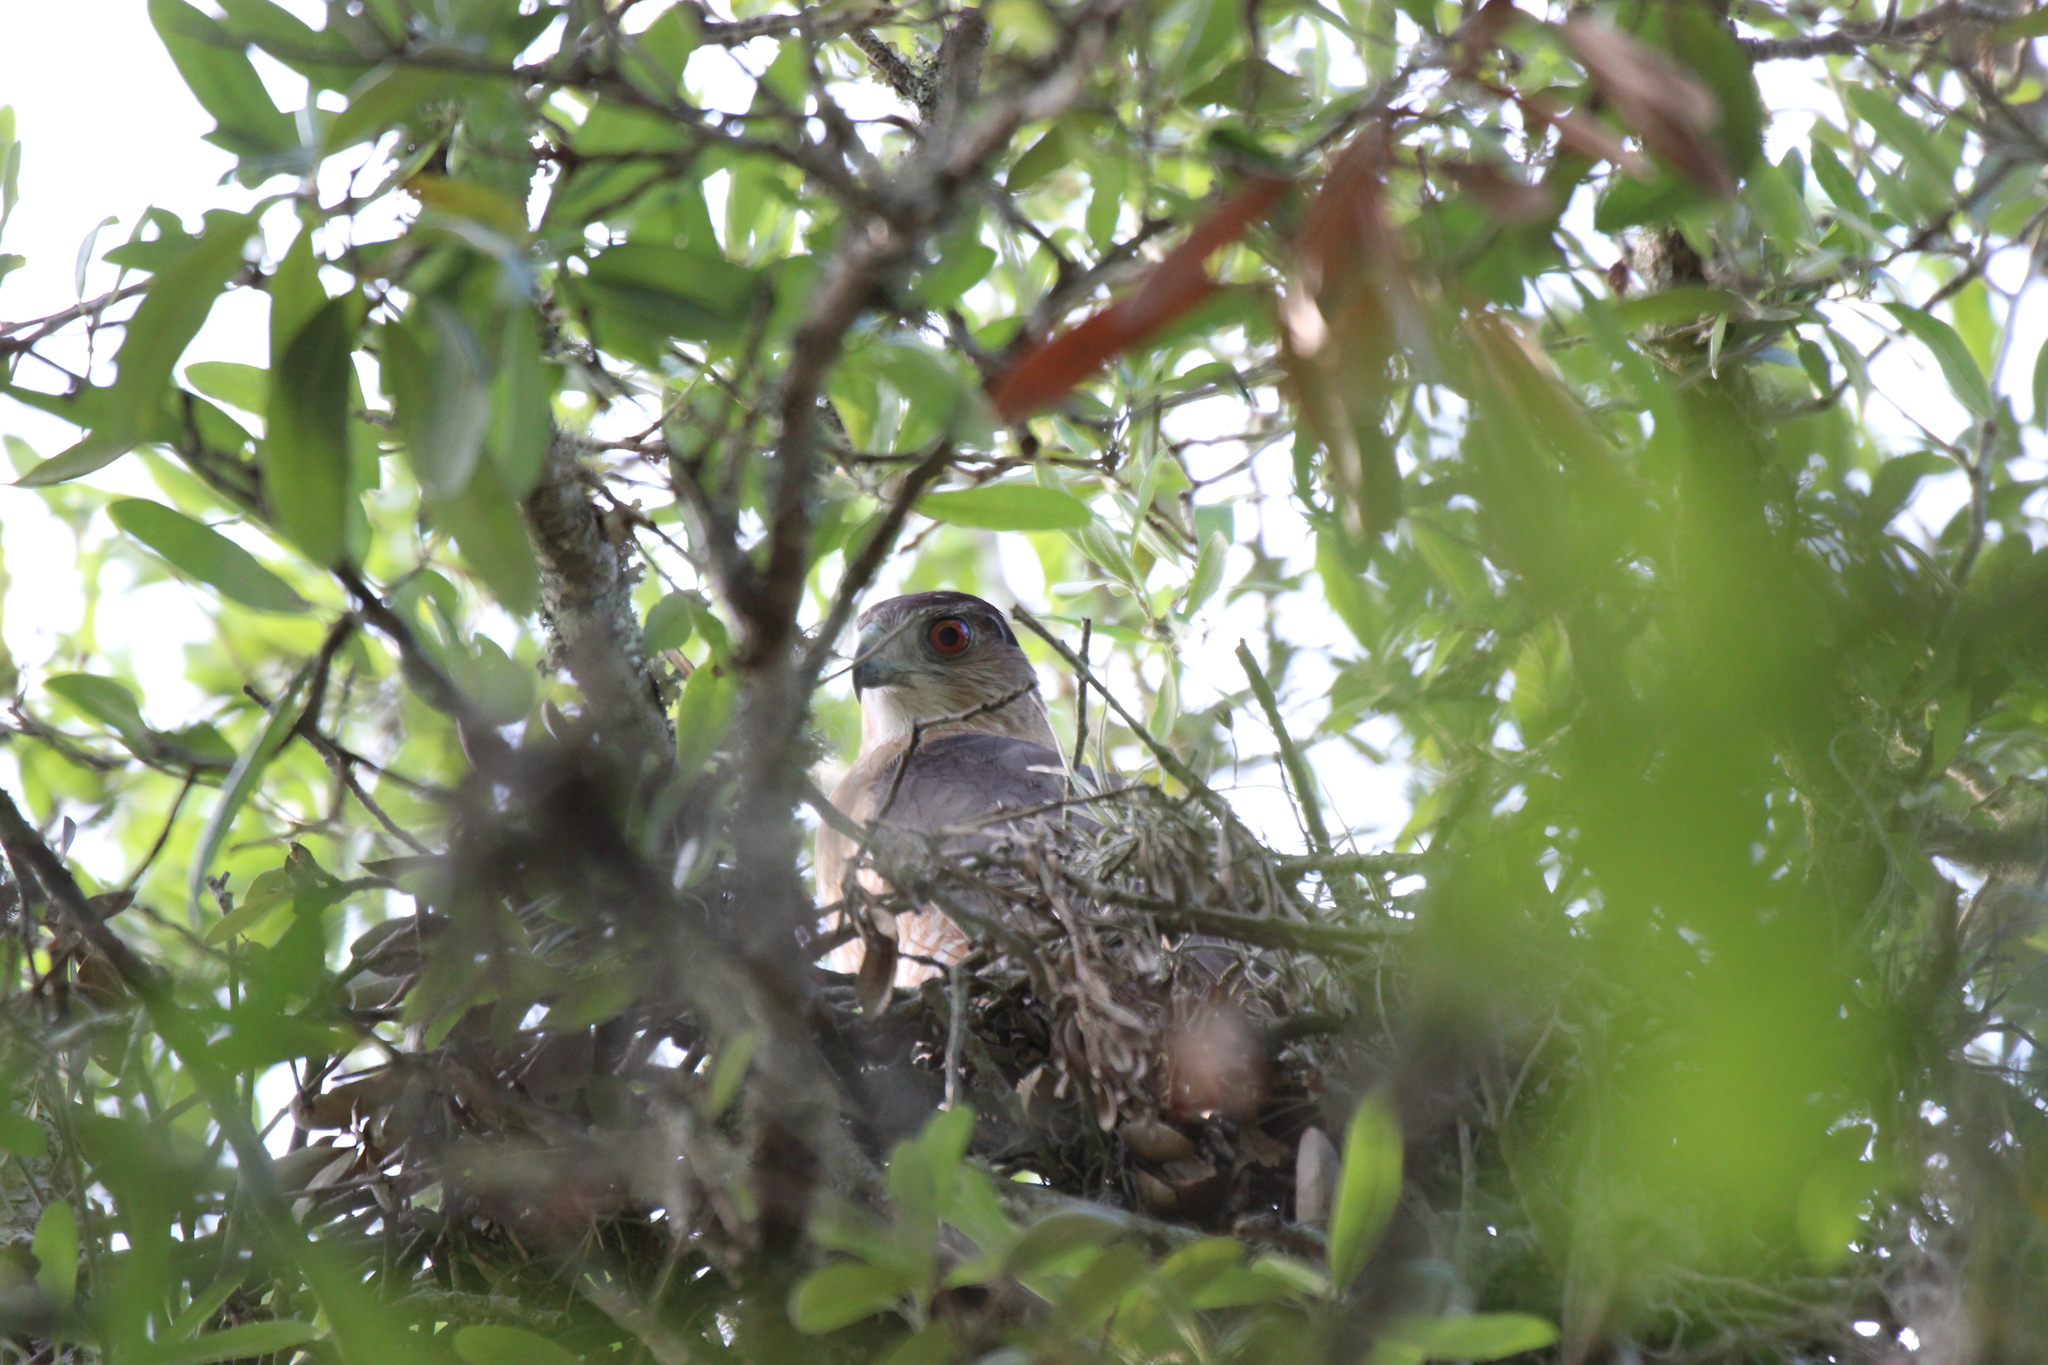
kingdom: Animalia
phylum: Chordata
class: Aves
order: Accipitriformes
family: Accipitridae
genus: Accipiter
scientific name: Accipiter cooperii
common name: Cooper's hawk
